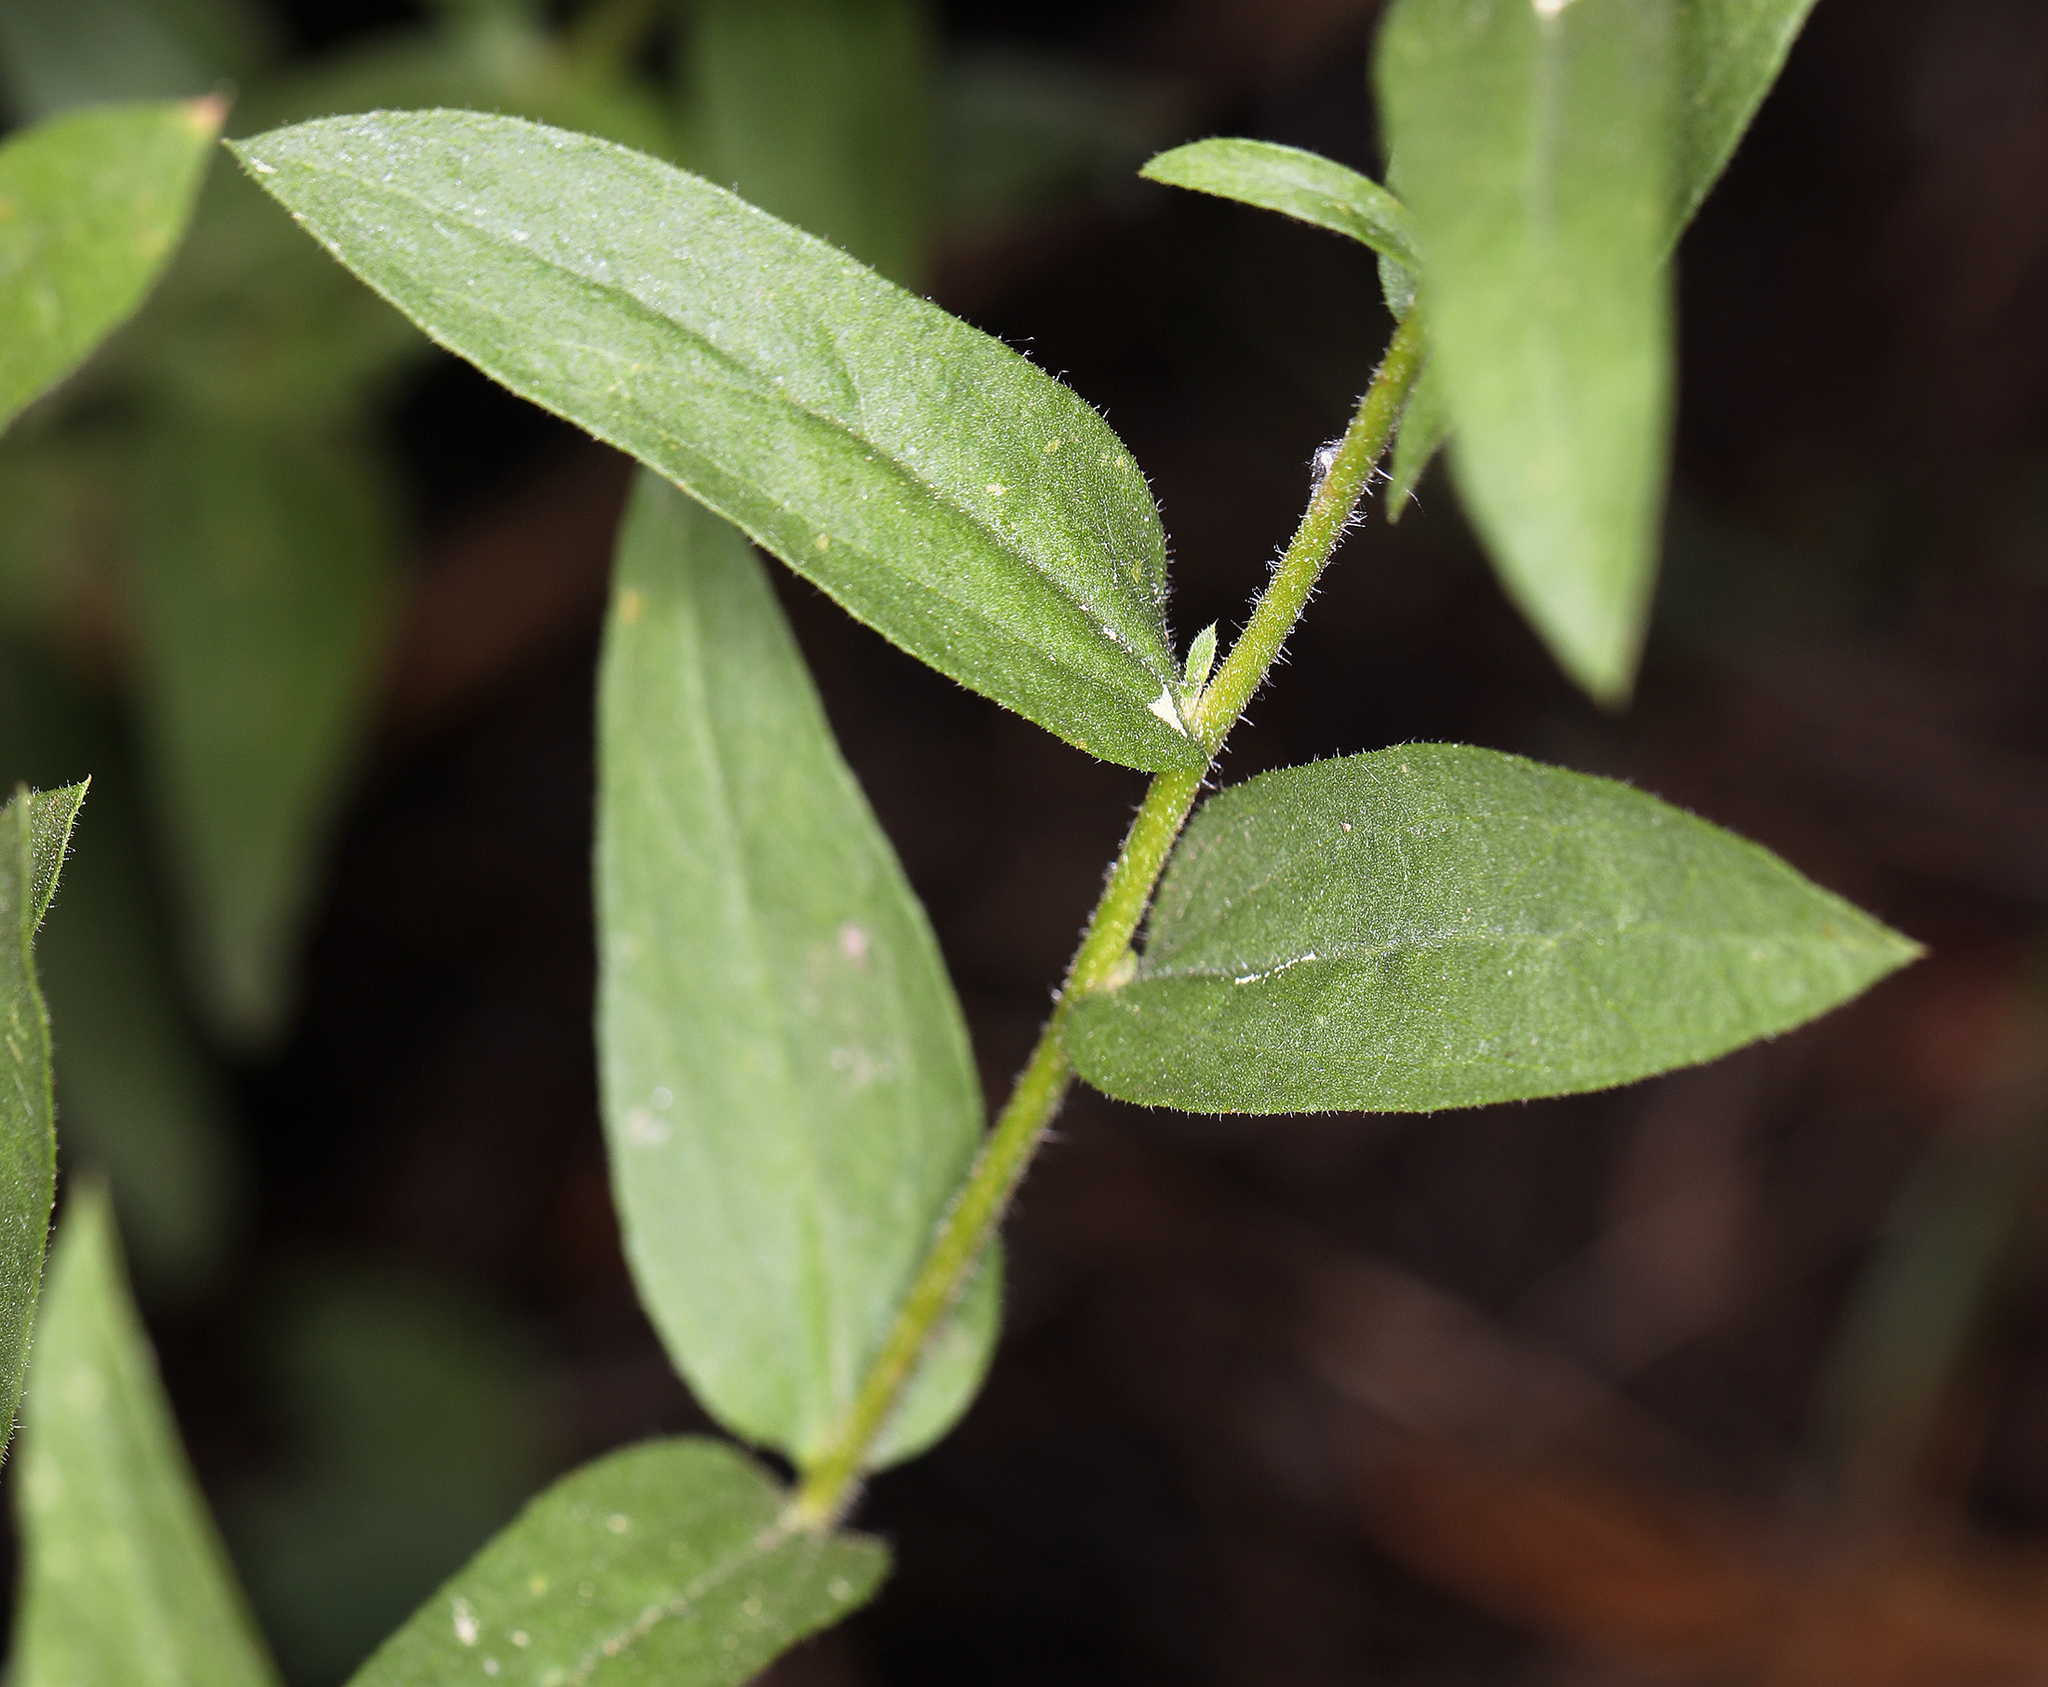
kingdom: Plantae
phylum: Tracheophyta
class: Magnoliopsida
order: Asterales
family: Asteraceae
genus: Eucephalus
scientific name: Eucephalus breweri
